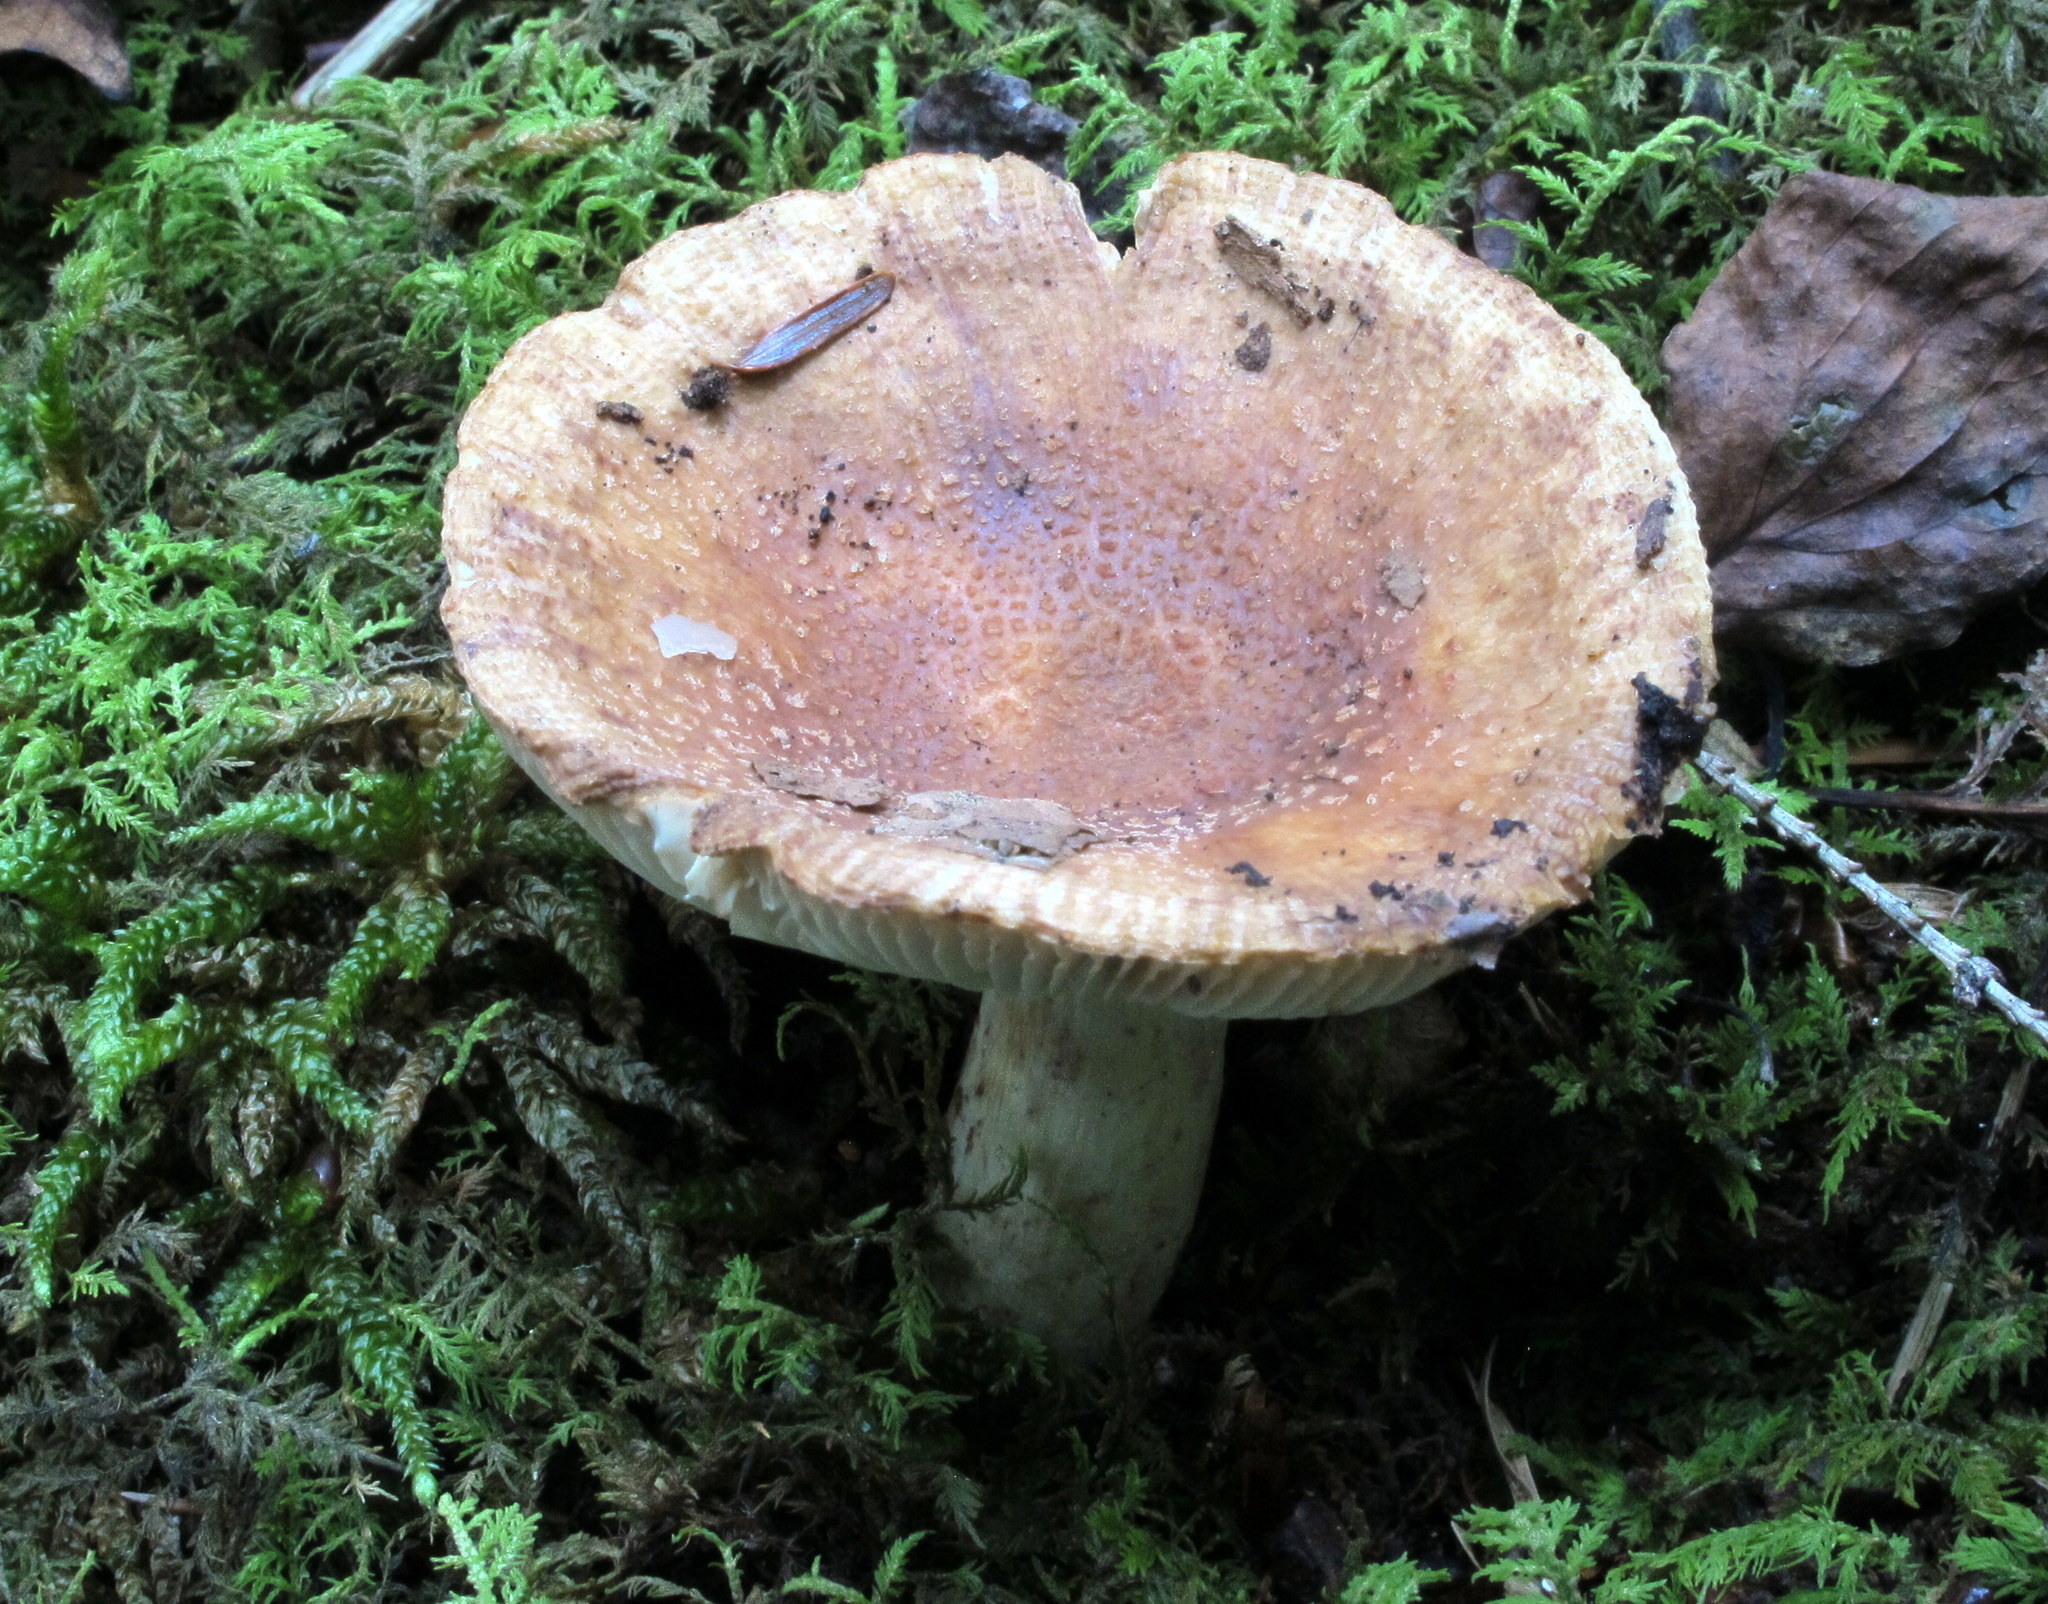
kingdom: Fungi
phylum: Basidiomycota
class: Agaricomycetes
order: Russulales
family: Russulaceae
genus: Russula
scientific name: Russula granulata
